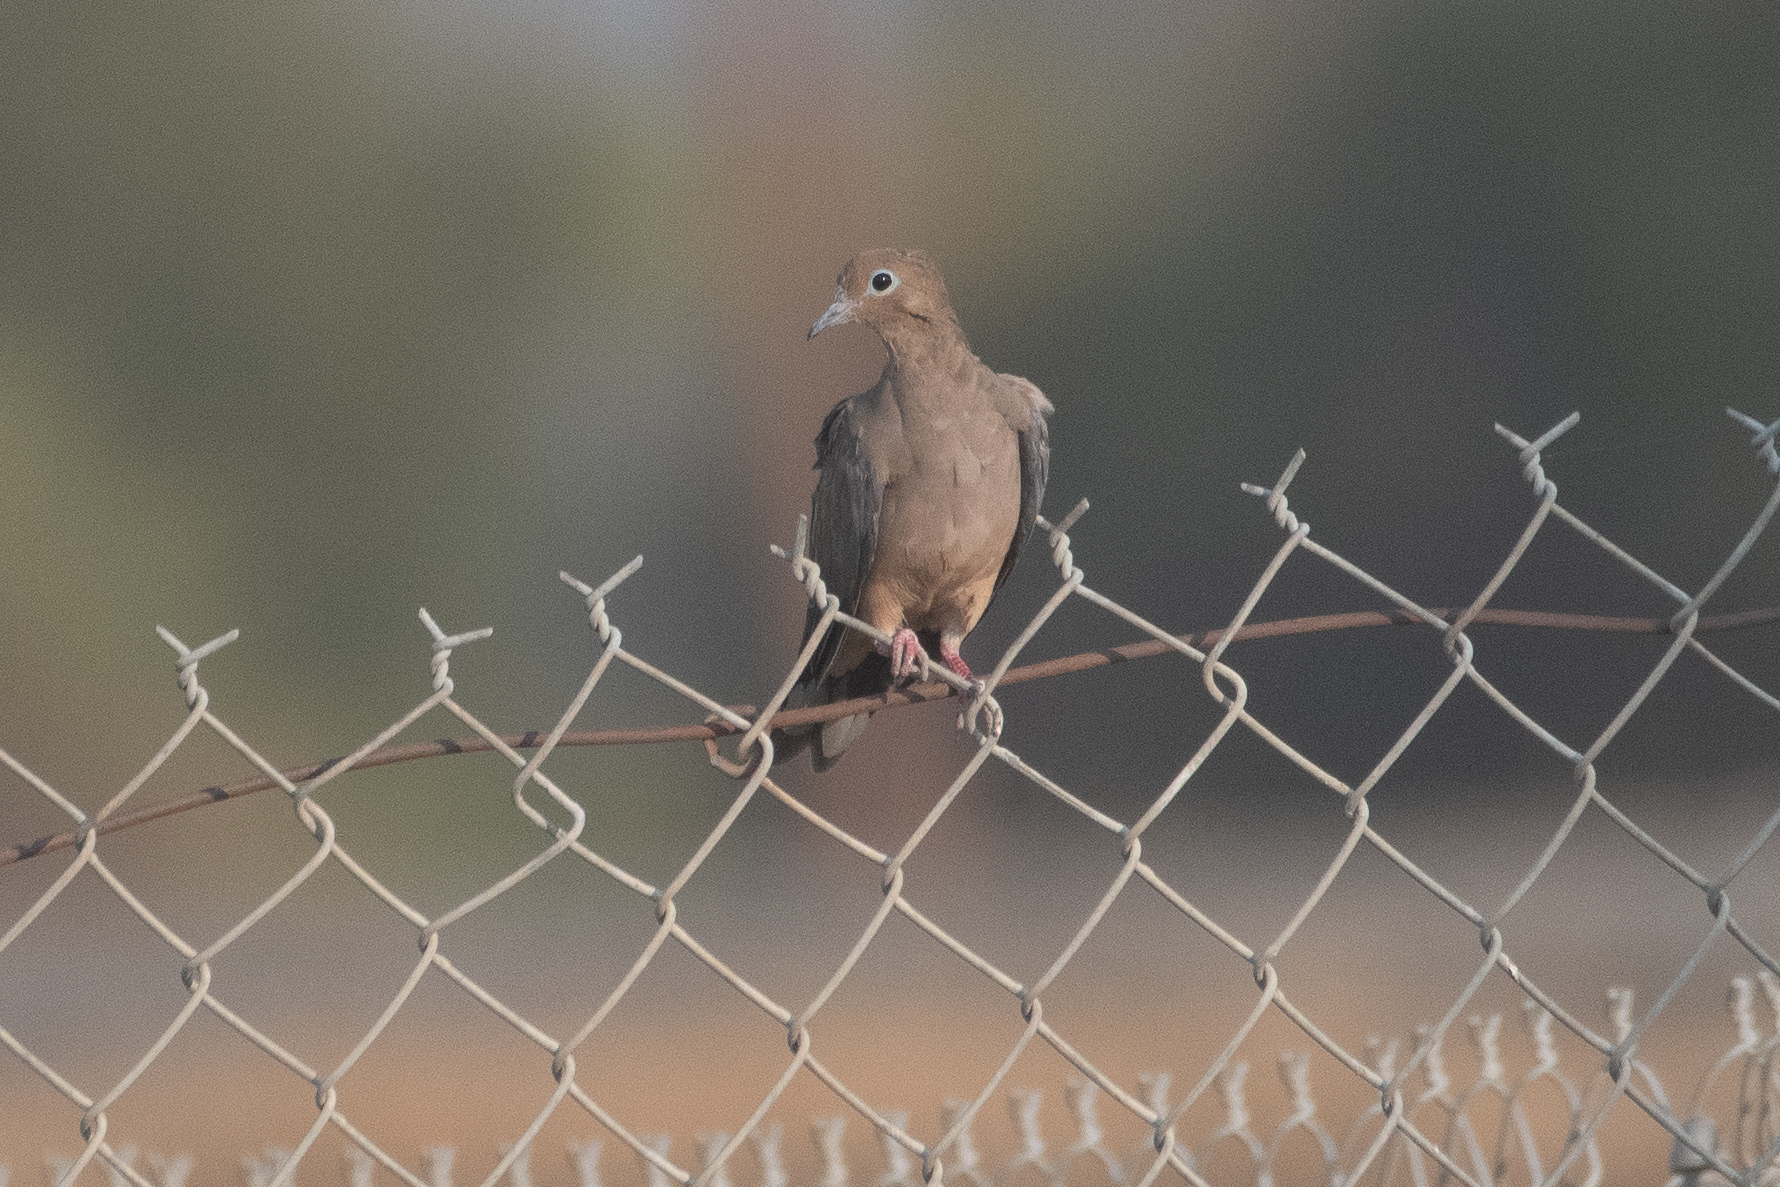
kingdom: Animalia
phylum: Chordata
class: Aves
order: Columbiformes
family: Columbidae
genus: Zenaida
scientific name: Zenaida macroura
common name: Mourning dove
